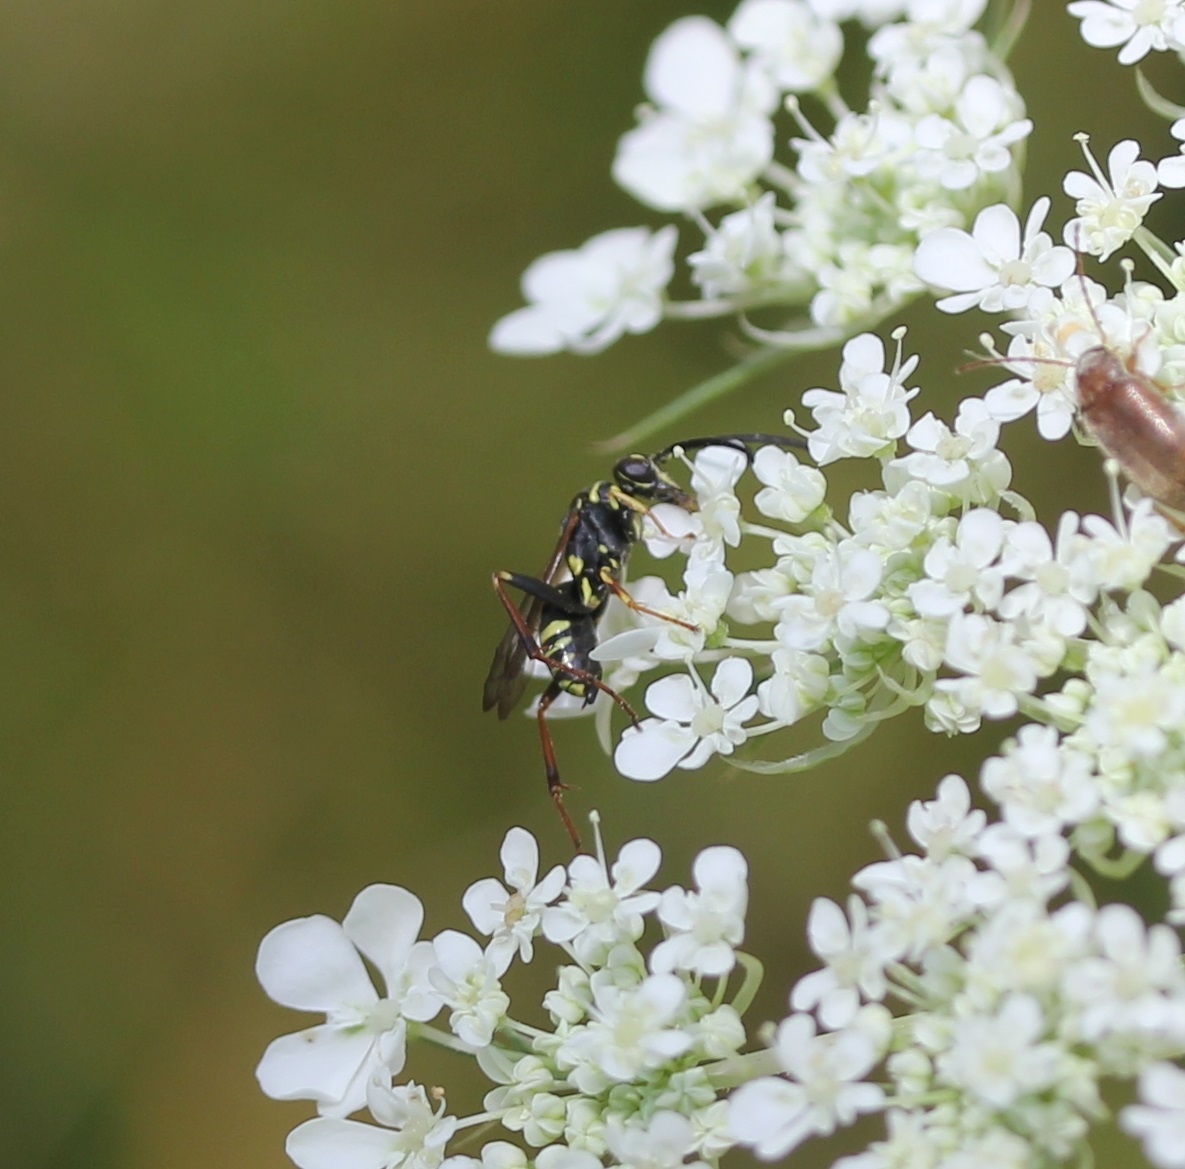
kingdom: Animalia
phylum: Arthropoda
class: Insecta
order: Hymenoptera
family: Pompilidae
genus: Ceropales
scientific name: Ceropales maculata
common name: Spider wasp
